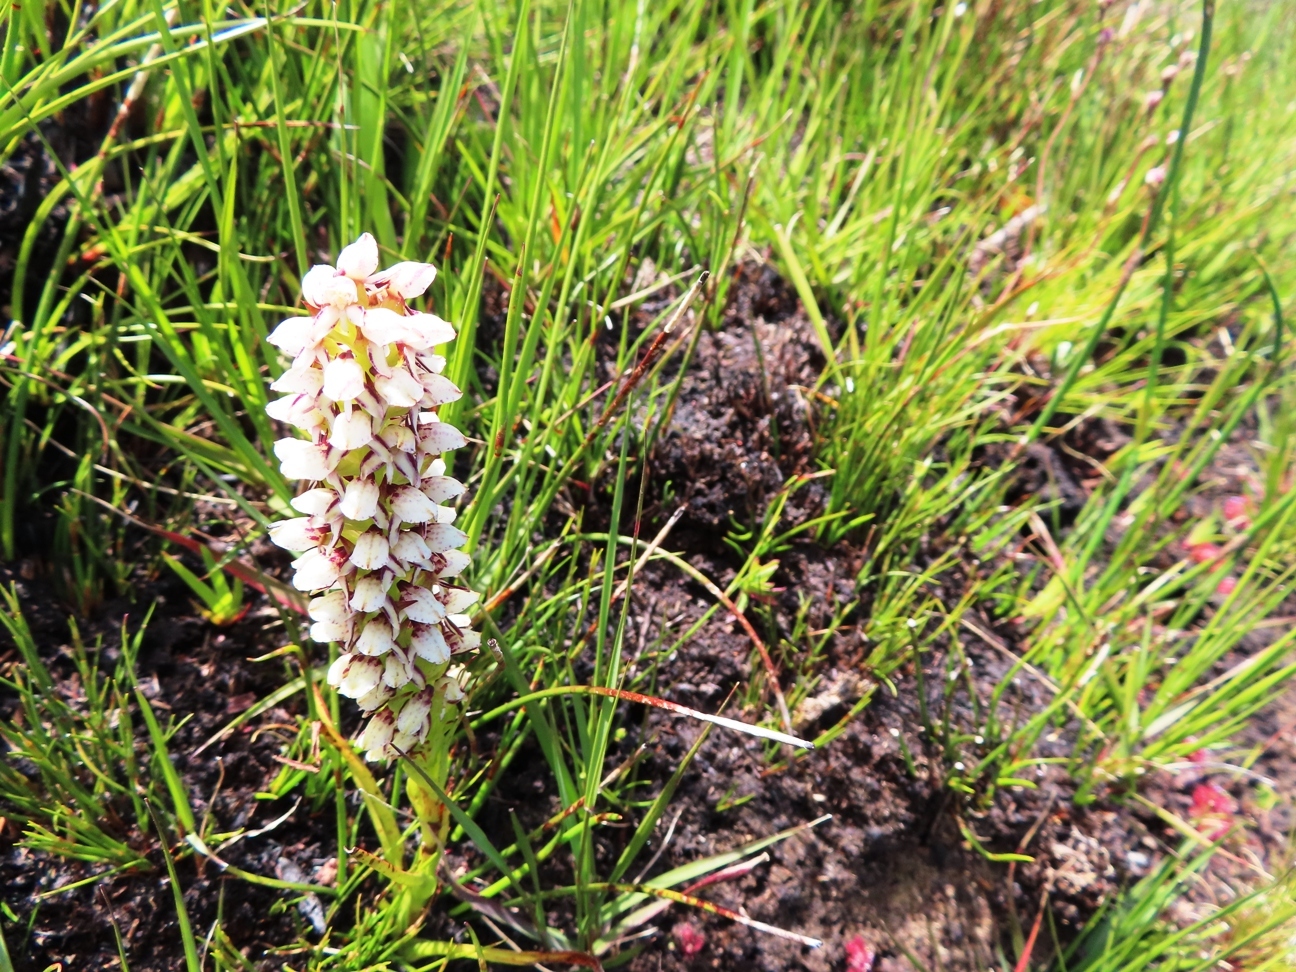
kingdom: Plantae
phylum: Tracheophyta
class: Liliopsida
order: Asparagales
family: Orchidaceae
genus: Disa
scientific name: Disa obtusa
